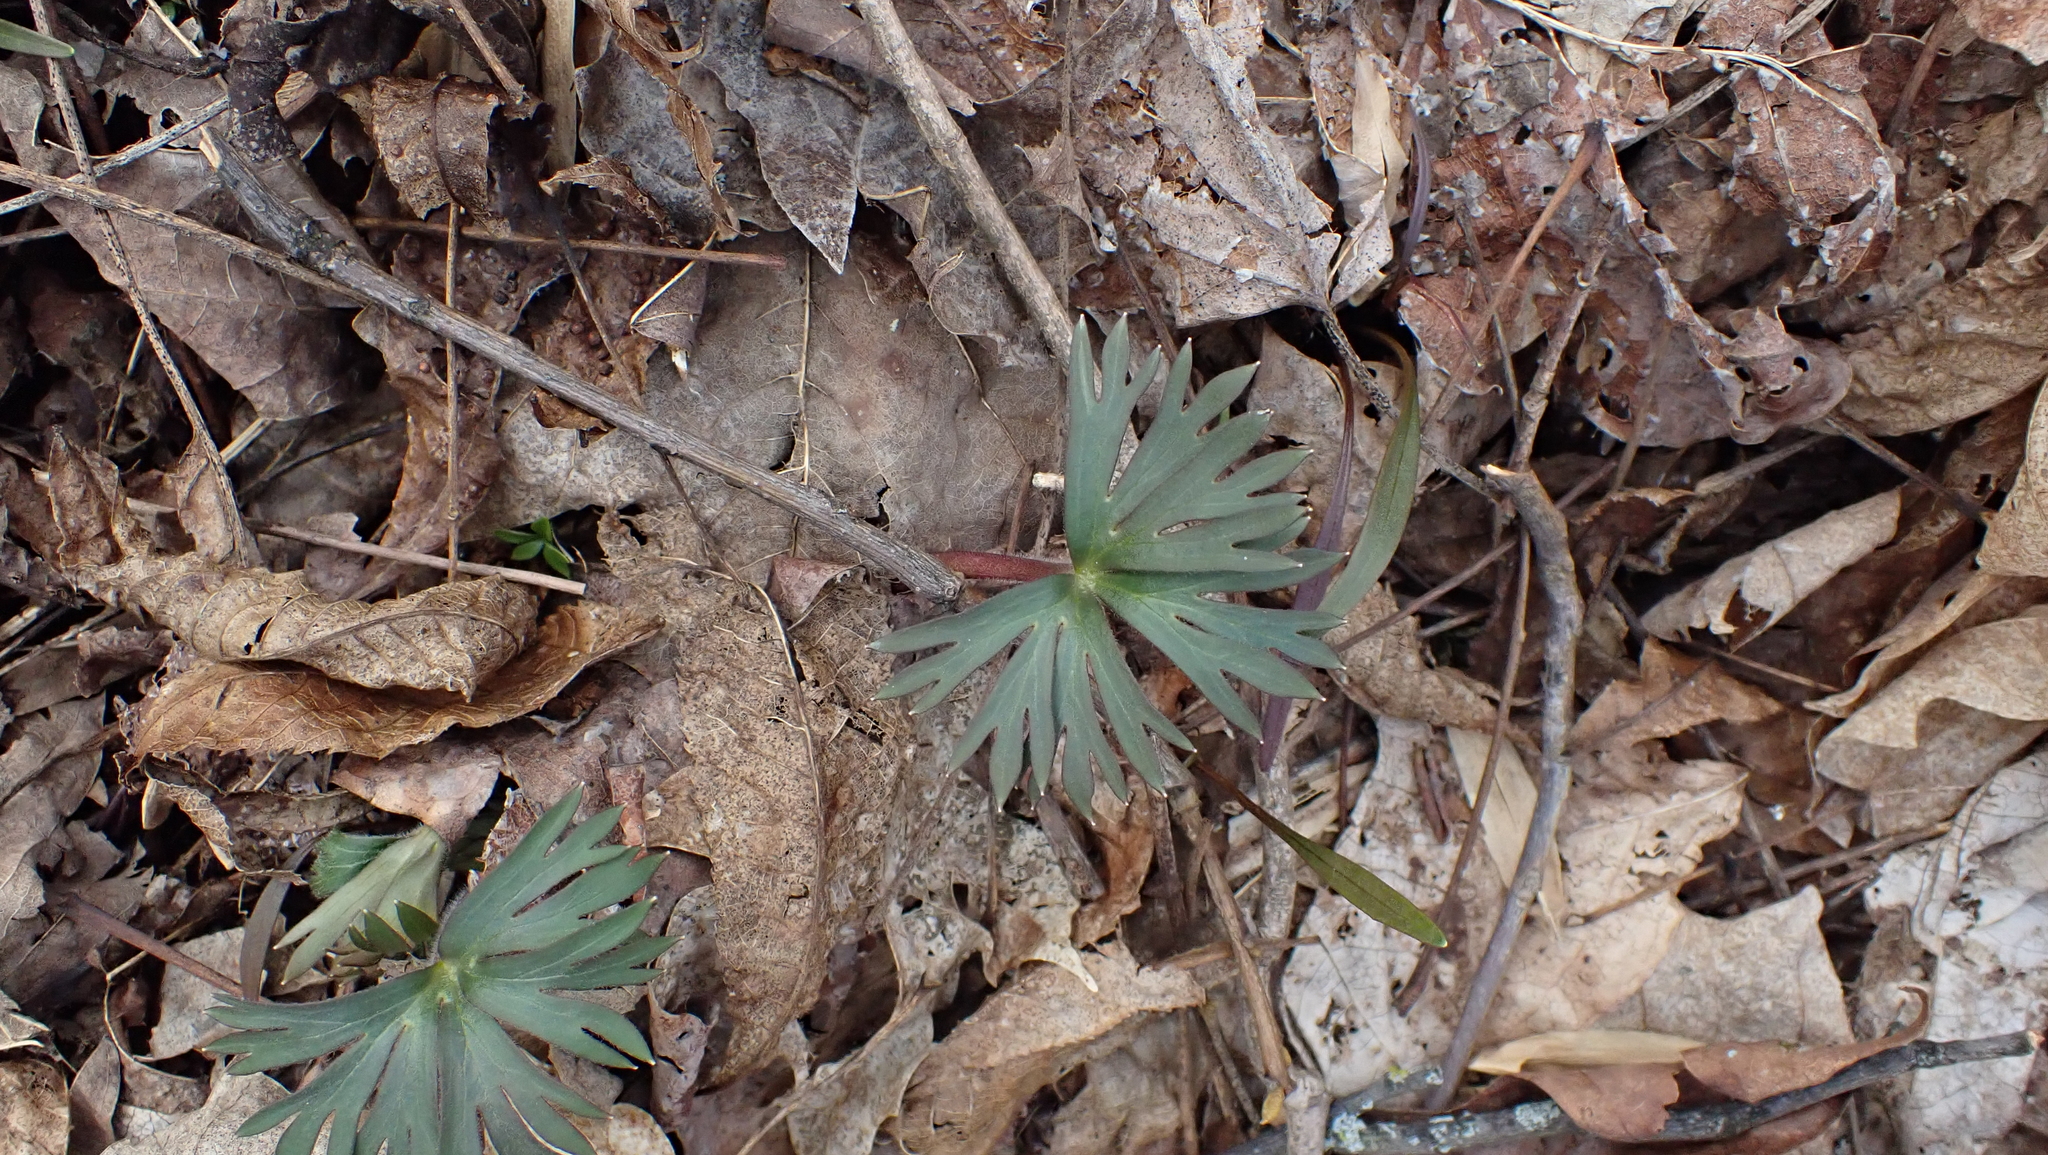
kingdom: Plantae
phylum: Tracheophyta
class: Magnoliopsida
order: Ranunculales
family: Ranunculaceae
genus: Delphinium
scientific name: Delphinium tricorne
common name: Dwarf larkspur
